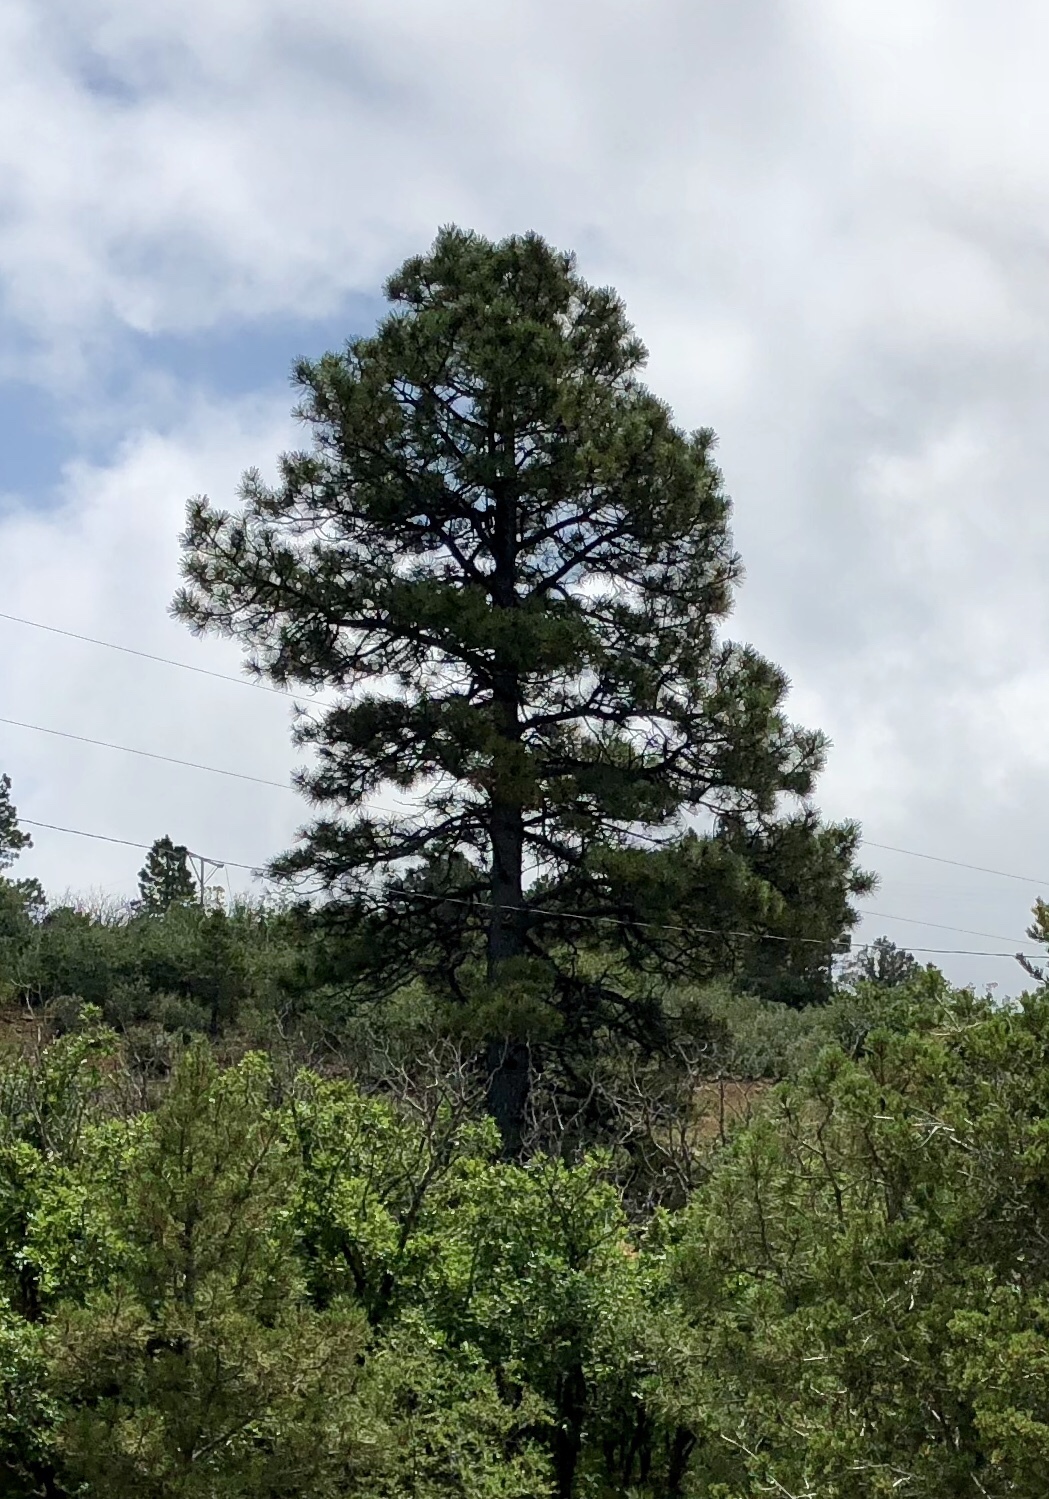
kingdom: Plantae
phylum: Tracheophyta
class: Pinopsida
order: Pinales
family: Pinaceae
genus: Pinus
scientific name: Pinus ponderosa
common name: Western yellow-pine
